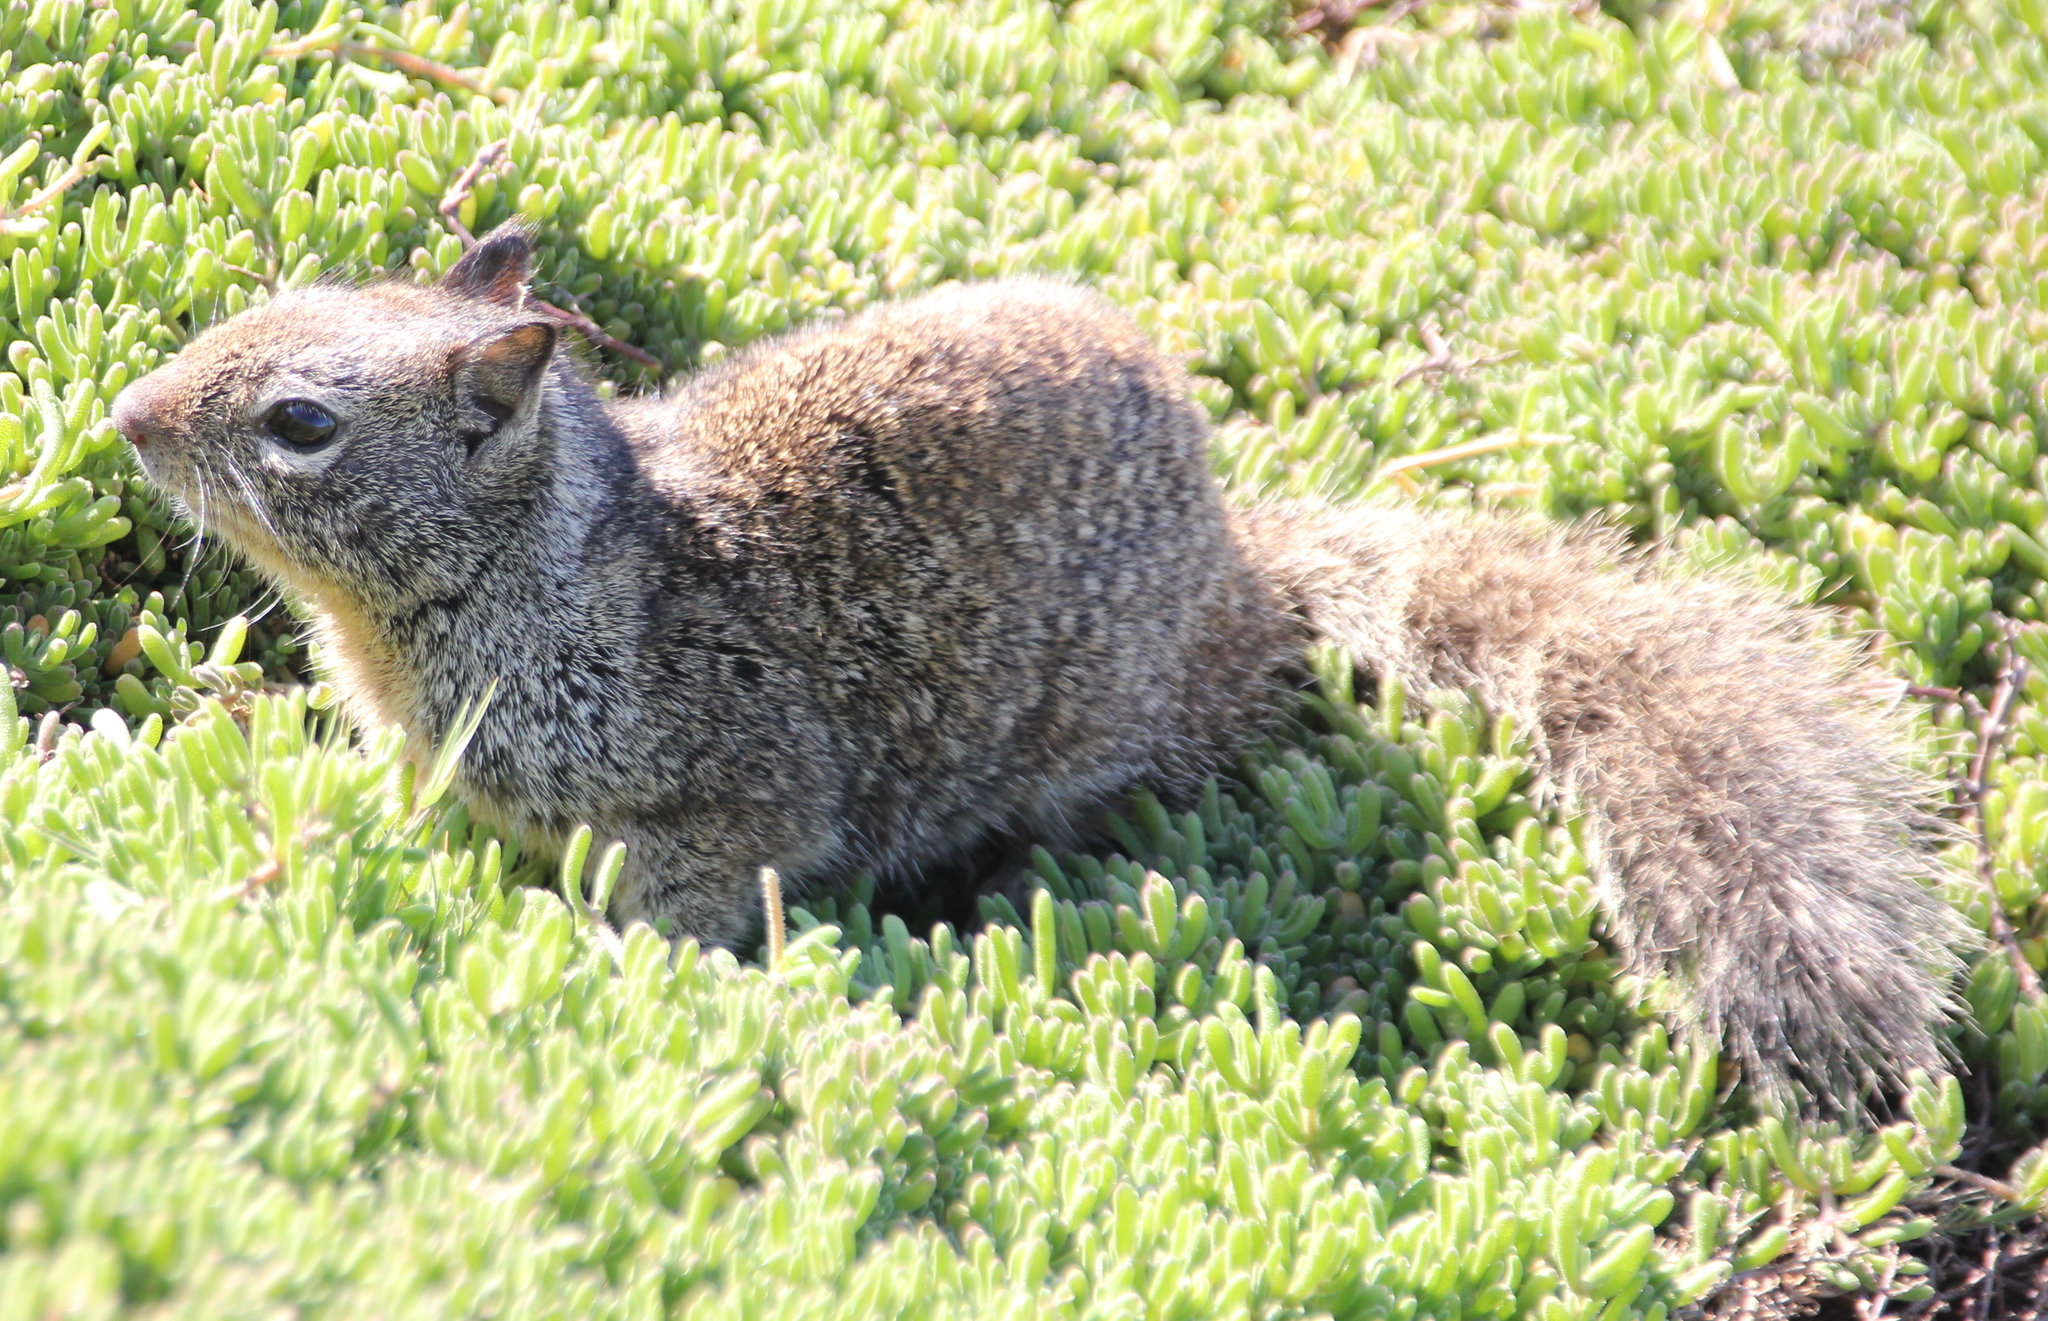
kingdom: Animalia
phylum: Chordata
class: Mammalia
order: Rodentia
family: Sciuridae
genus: Otospermophilus
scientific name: Otospermophilus beecheyi
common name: California ground squirrel
